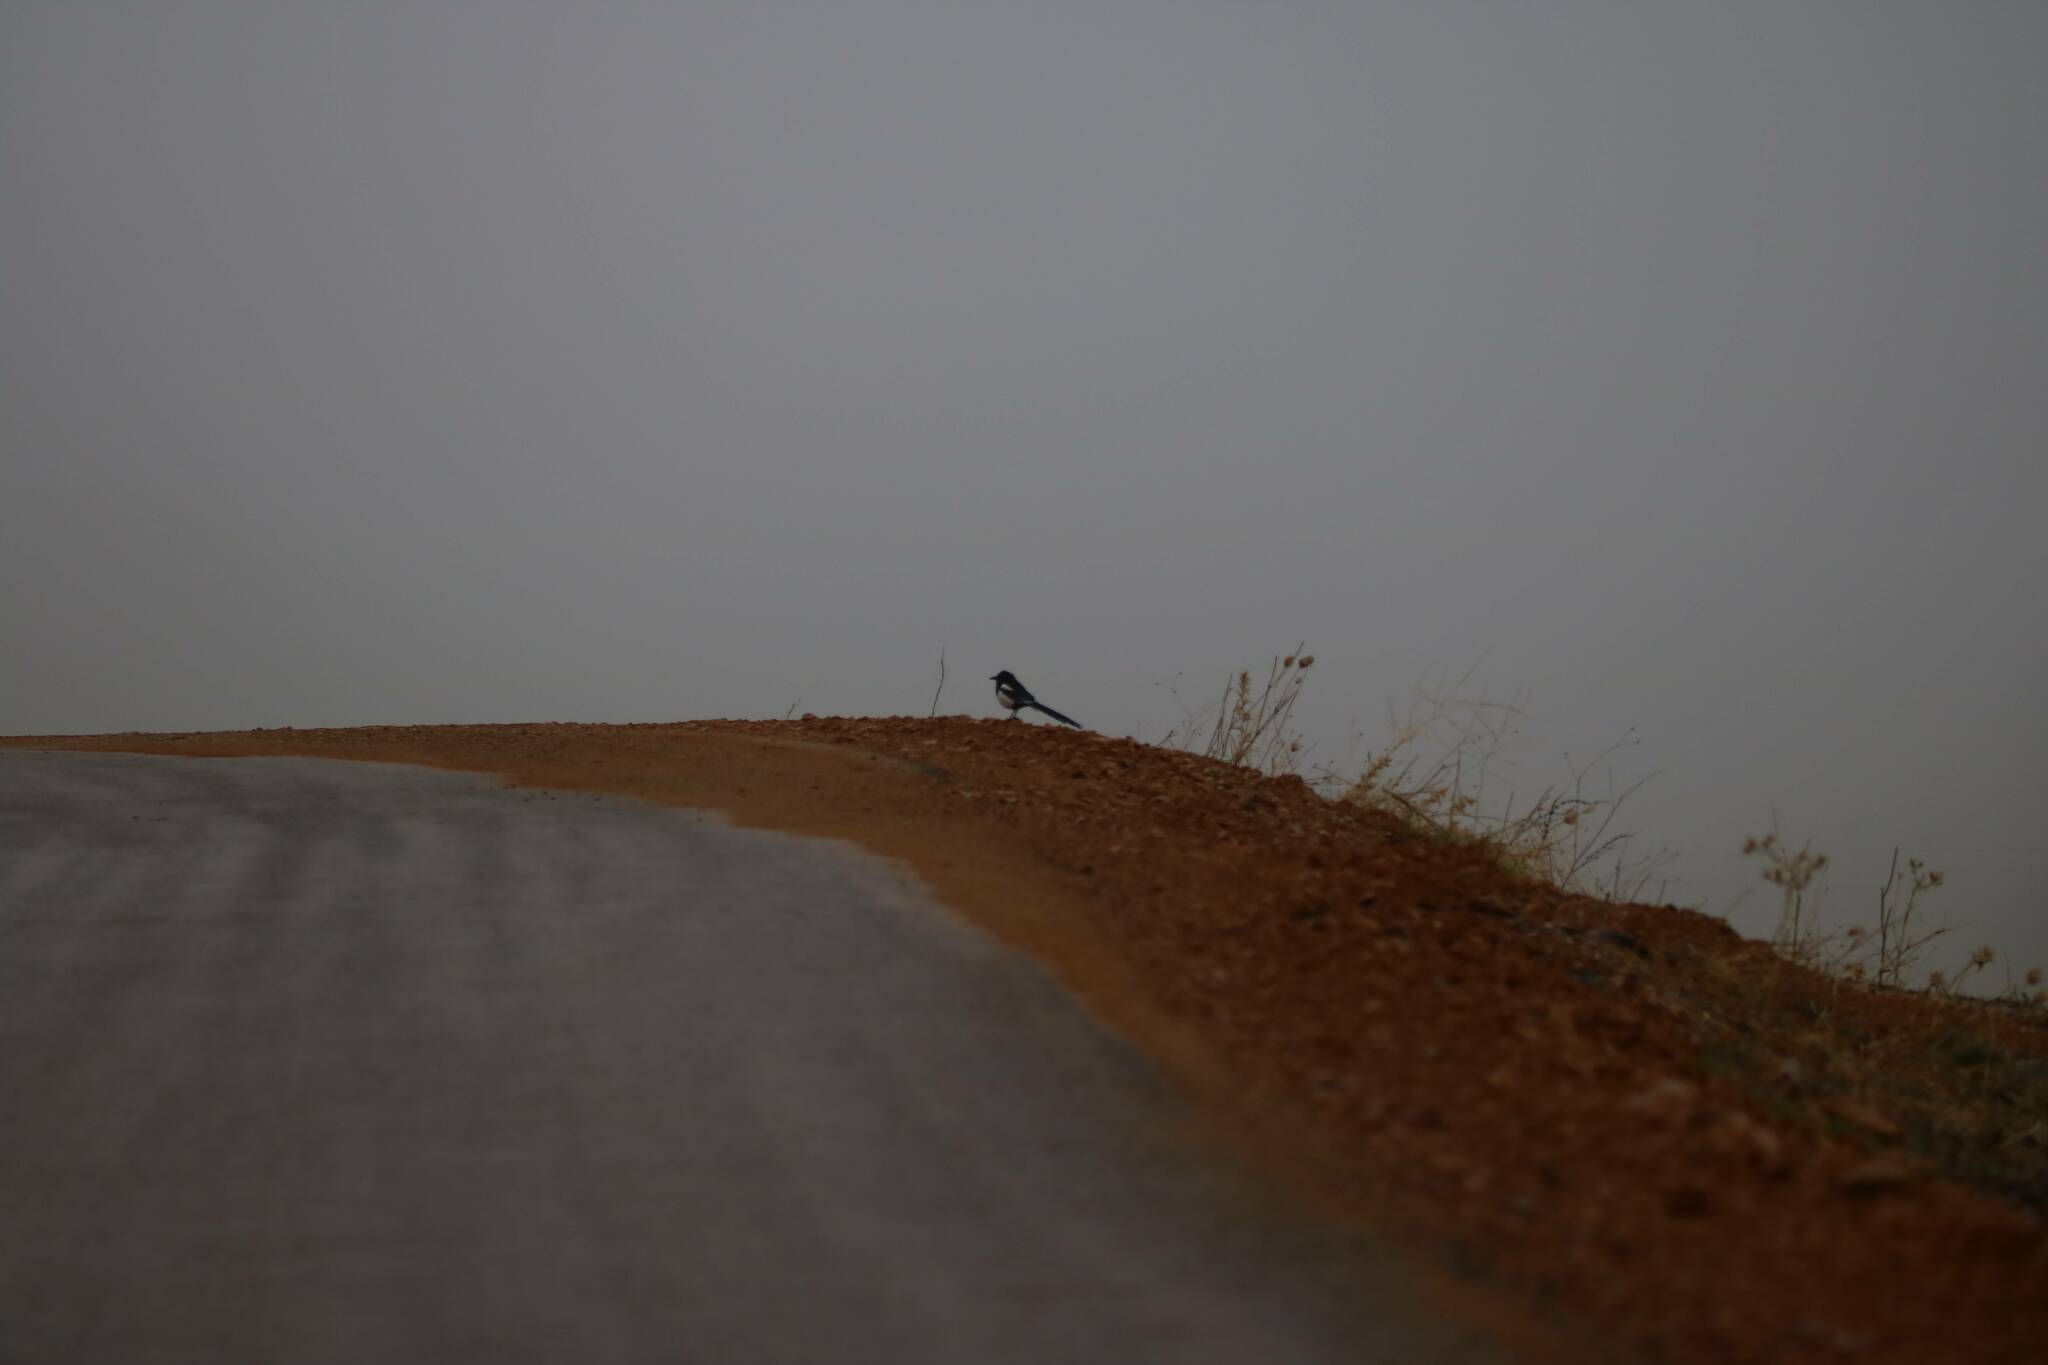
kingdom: Animalia
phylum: Chordata
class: Aves
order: Passeriformes
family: Corvidae
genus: Pica
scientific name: Pica mauritanica
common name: Maghreb magpie
